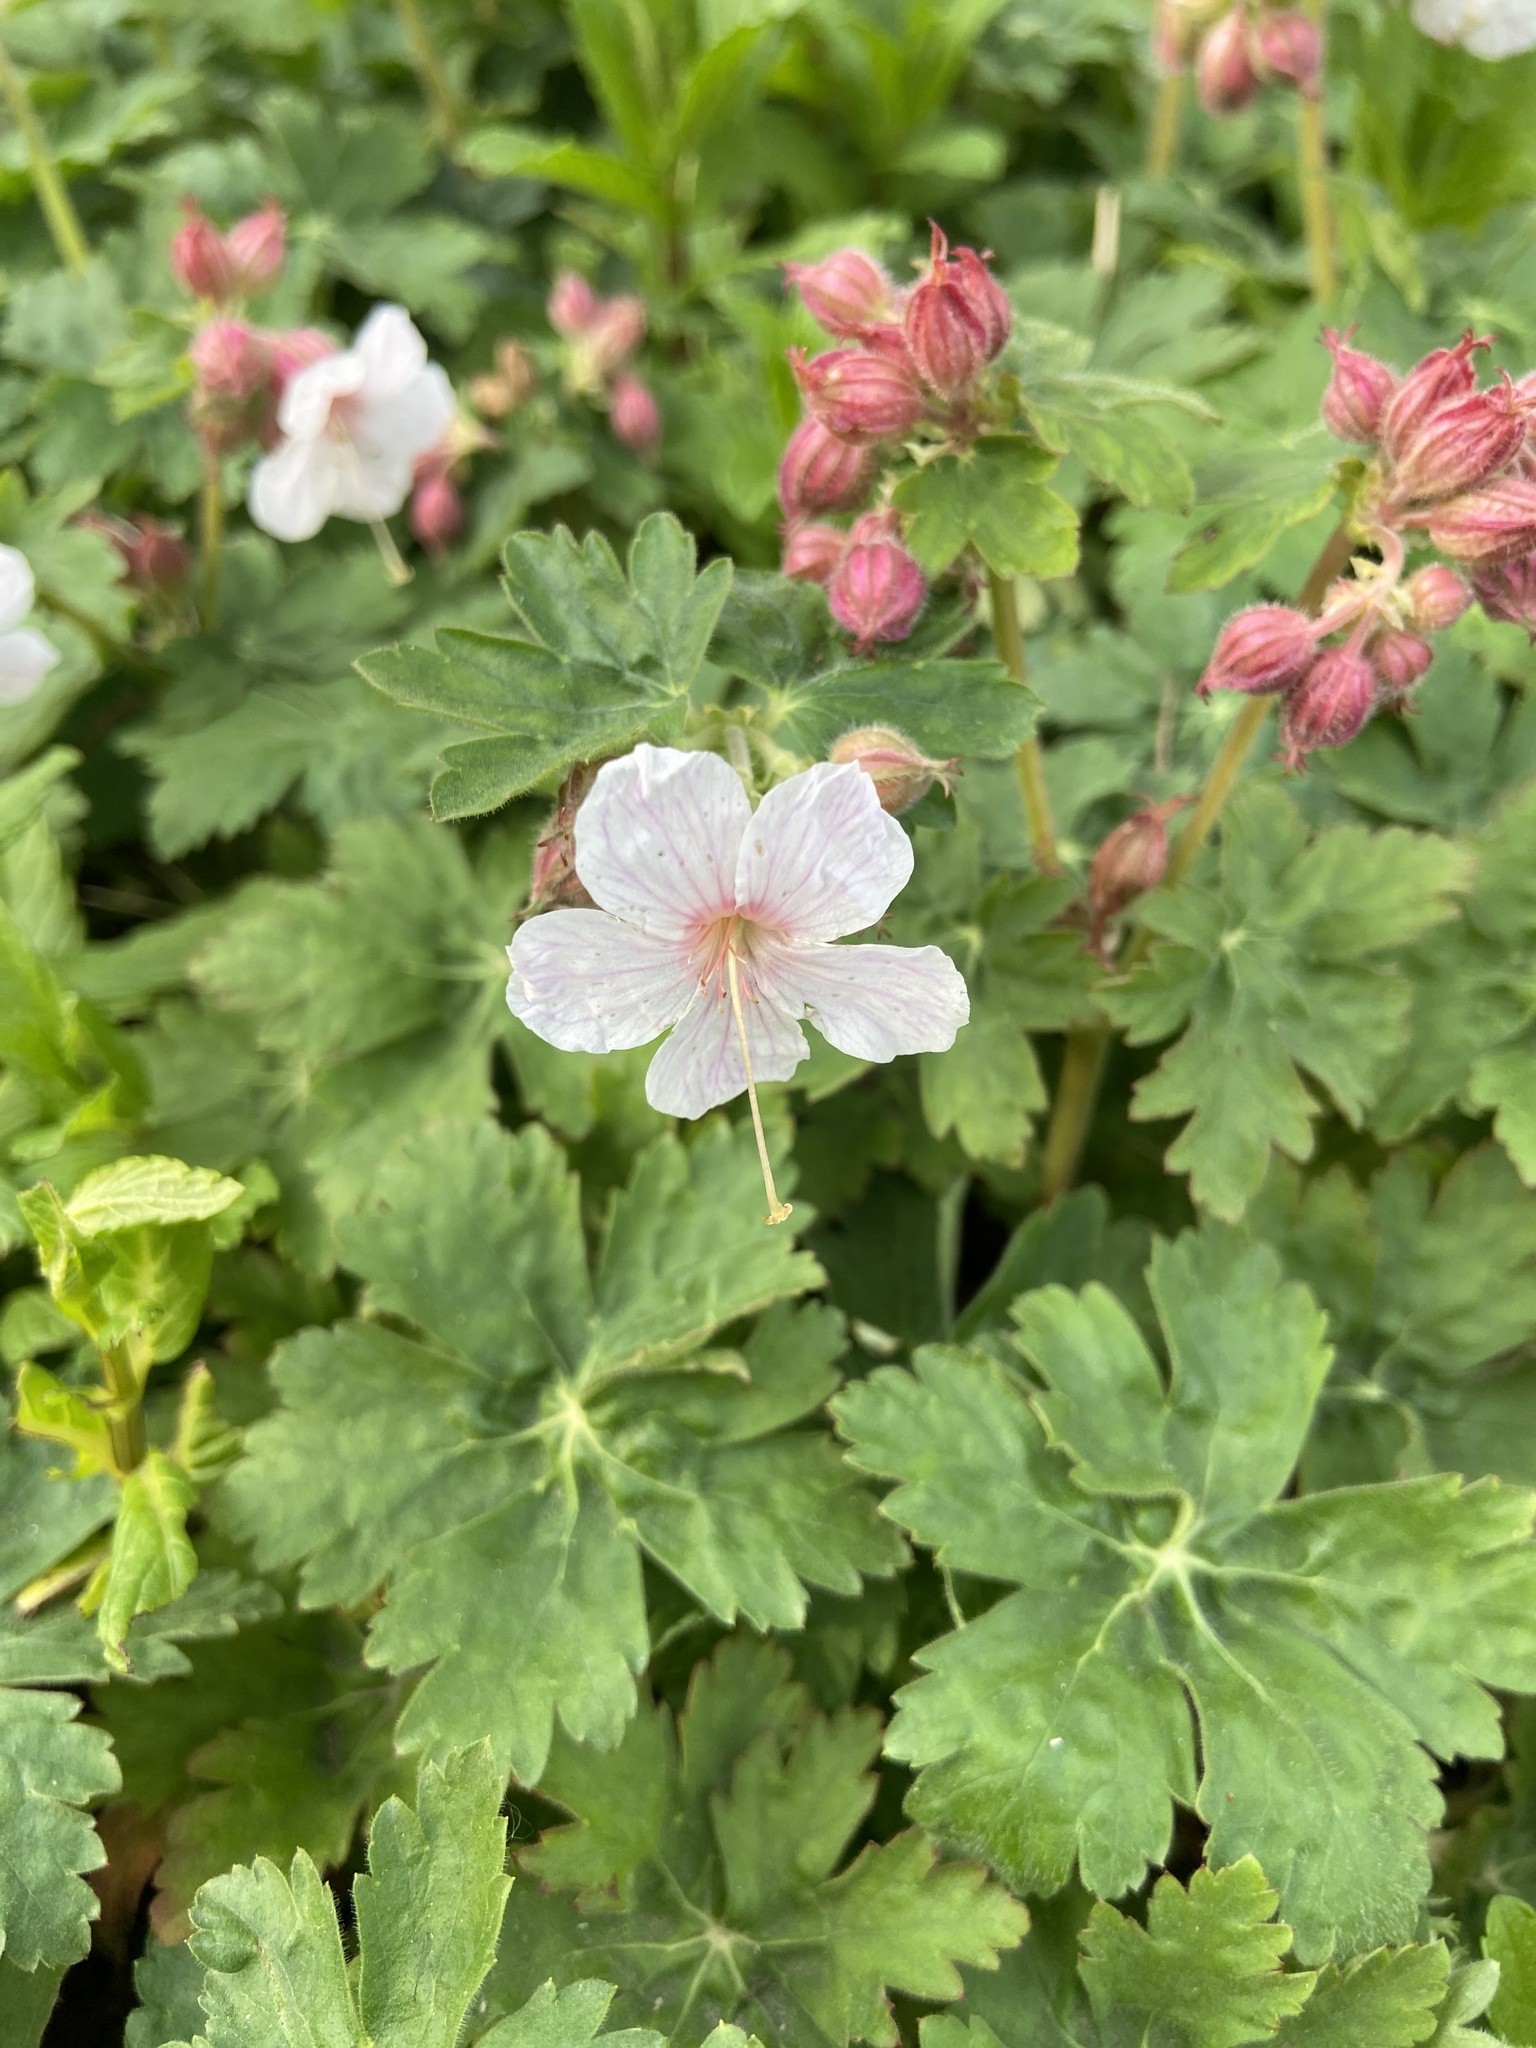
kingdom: Plantae
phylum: Tracheophyta
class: Magnoliopsida
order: Geraniales
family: Geraniaceae
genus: Geranium
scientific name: Geranium macrorrhizum
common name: Rock crane's-bill
